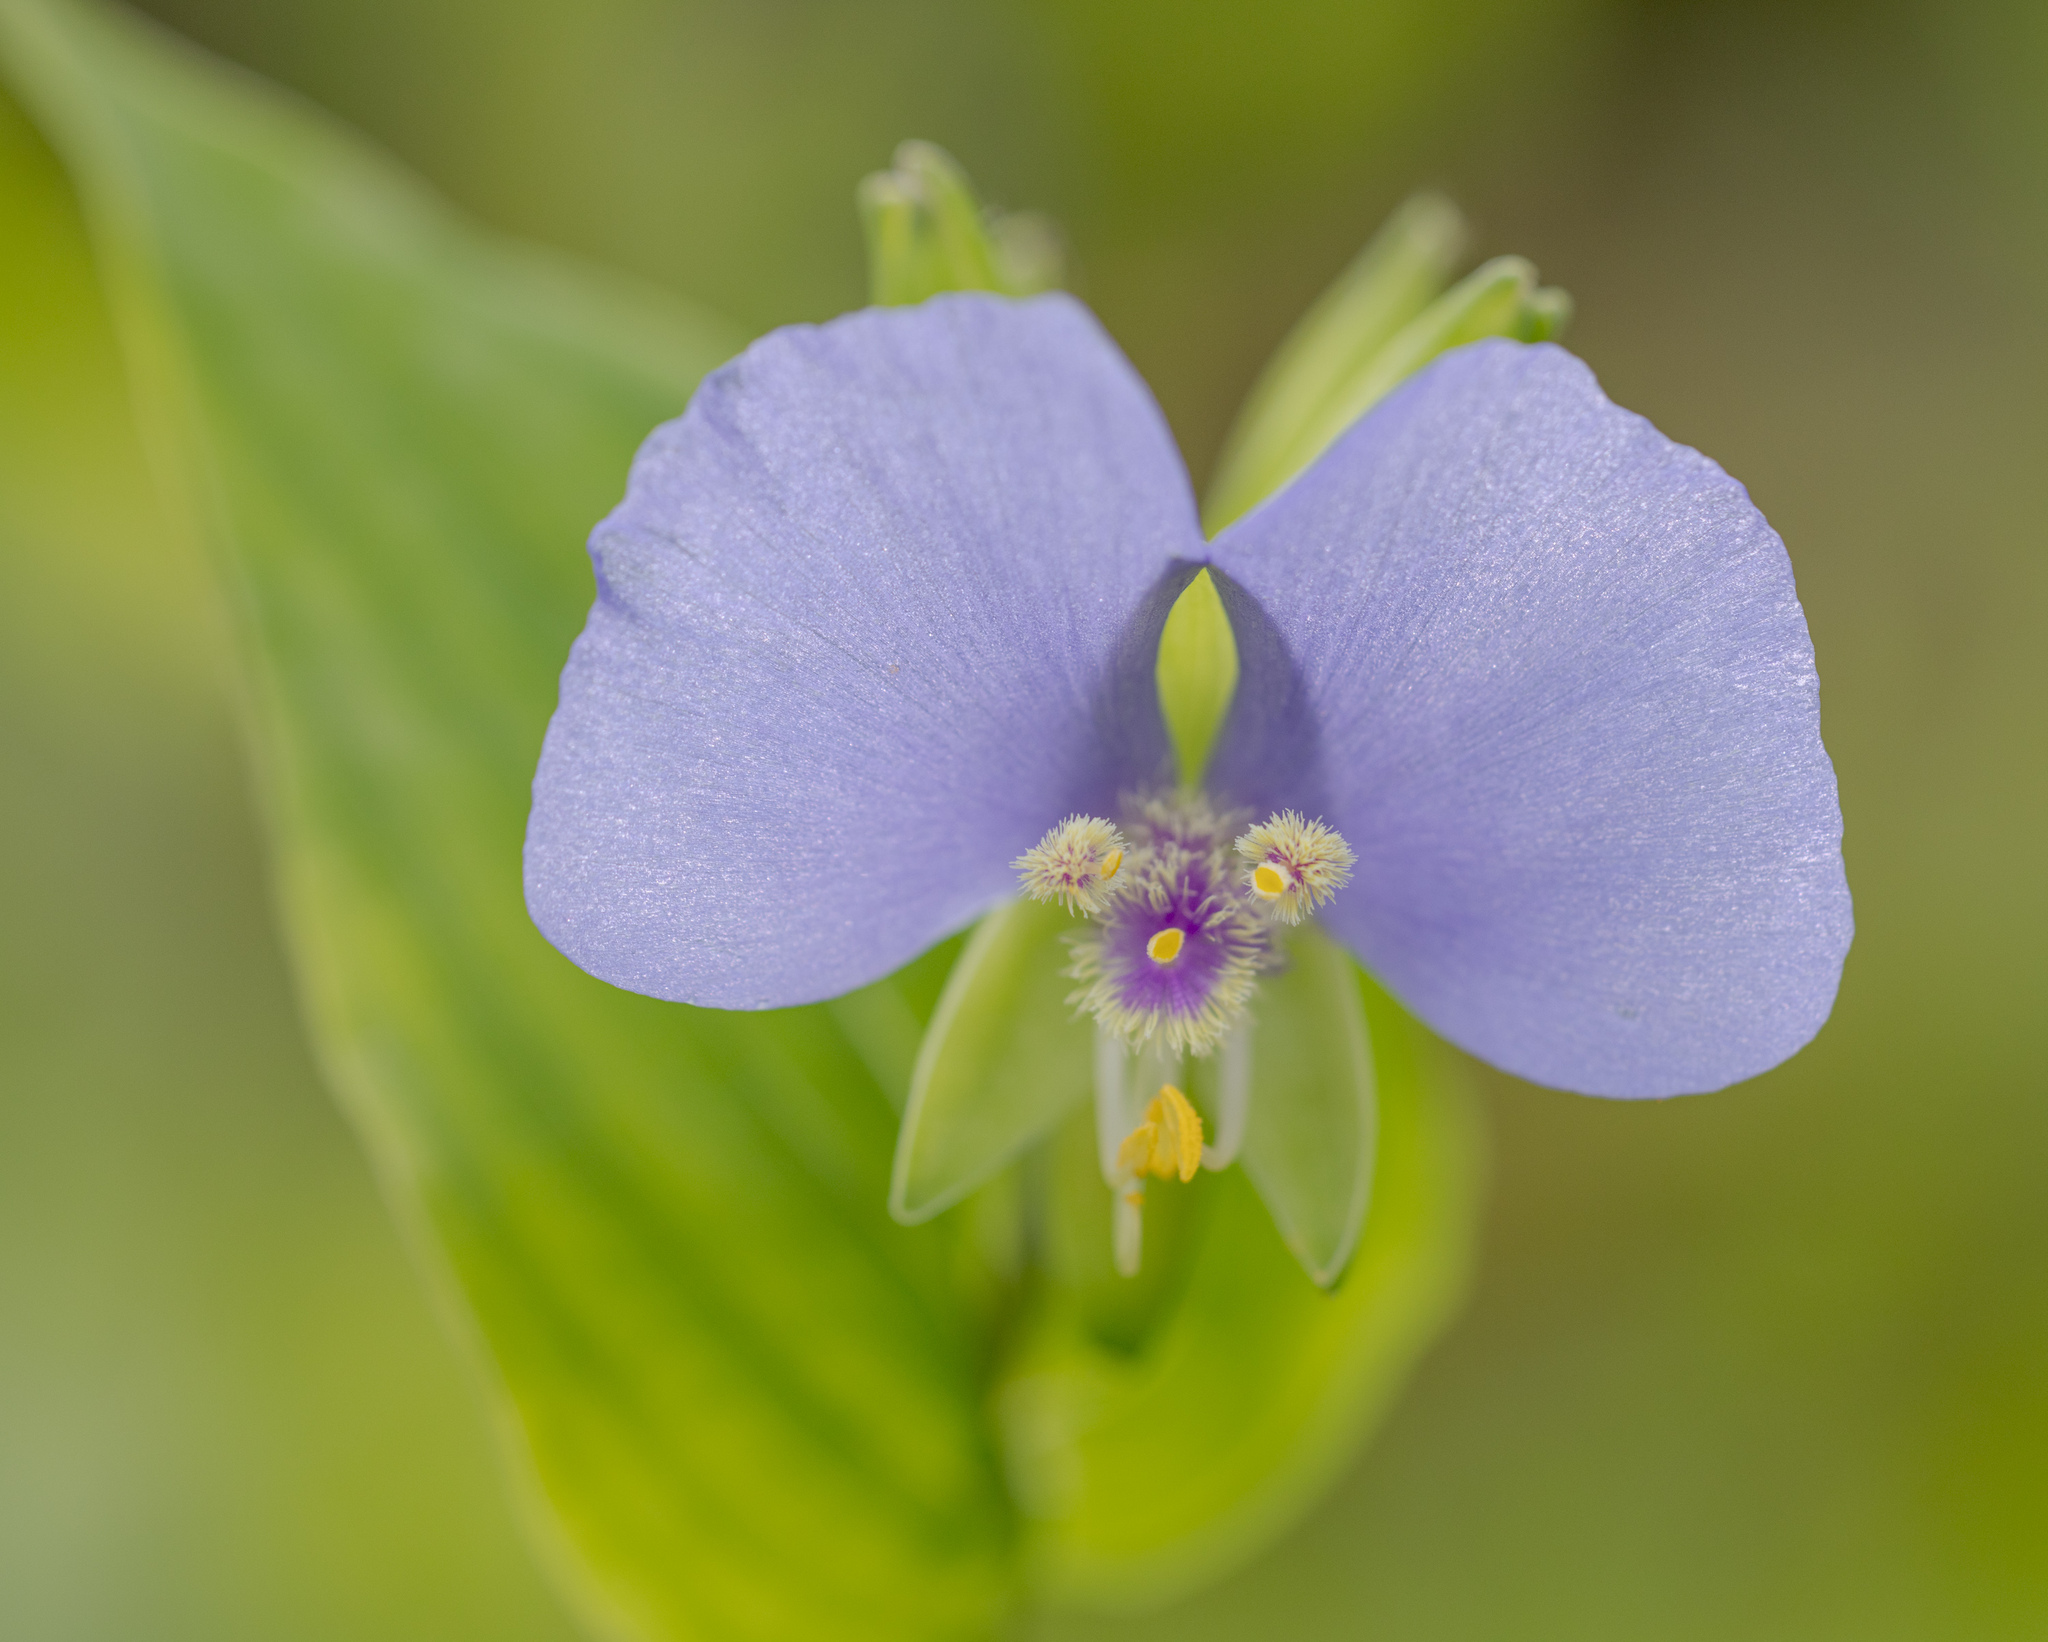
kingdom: Plantae
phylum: Tracheophyta
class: Liliopsida
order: Commelinales
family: Commelinaceae
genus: Tinantia
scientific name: Tinantia anomala
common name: False dayflower
